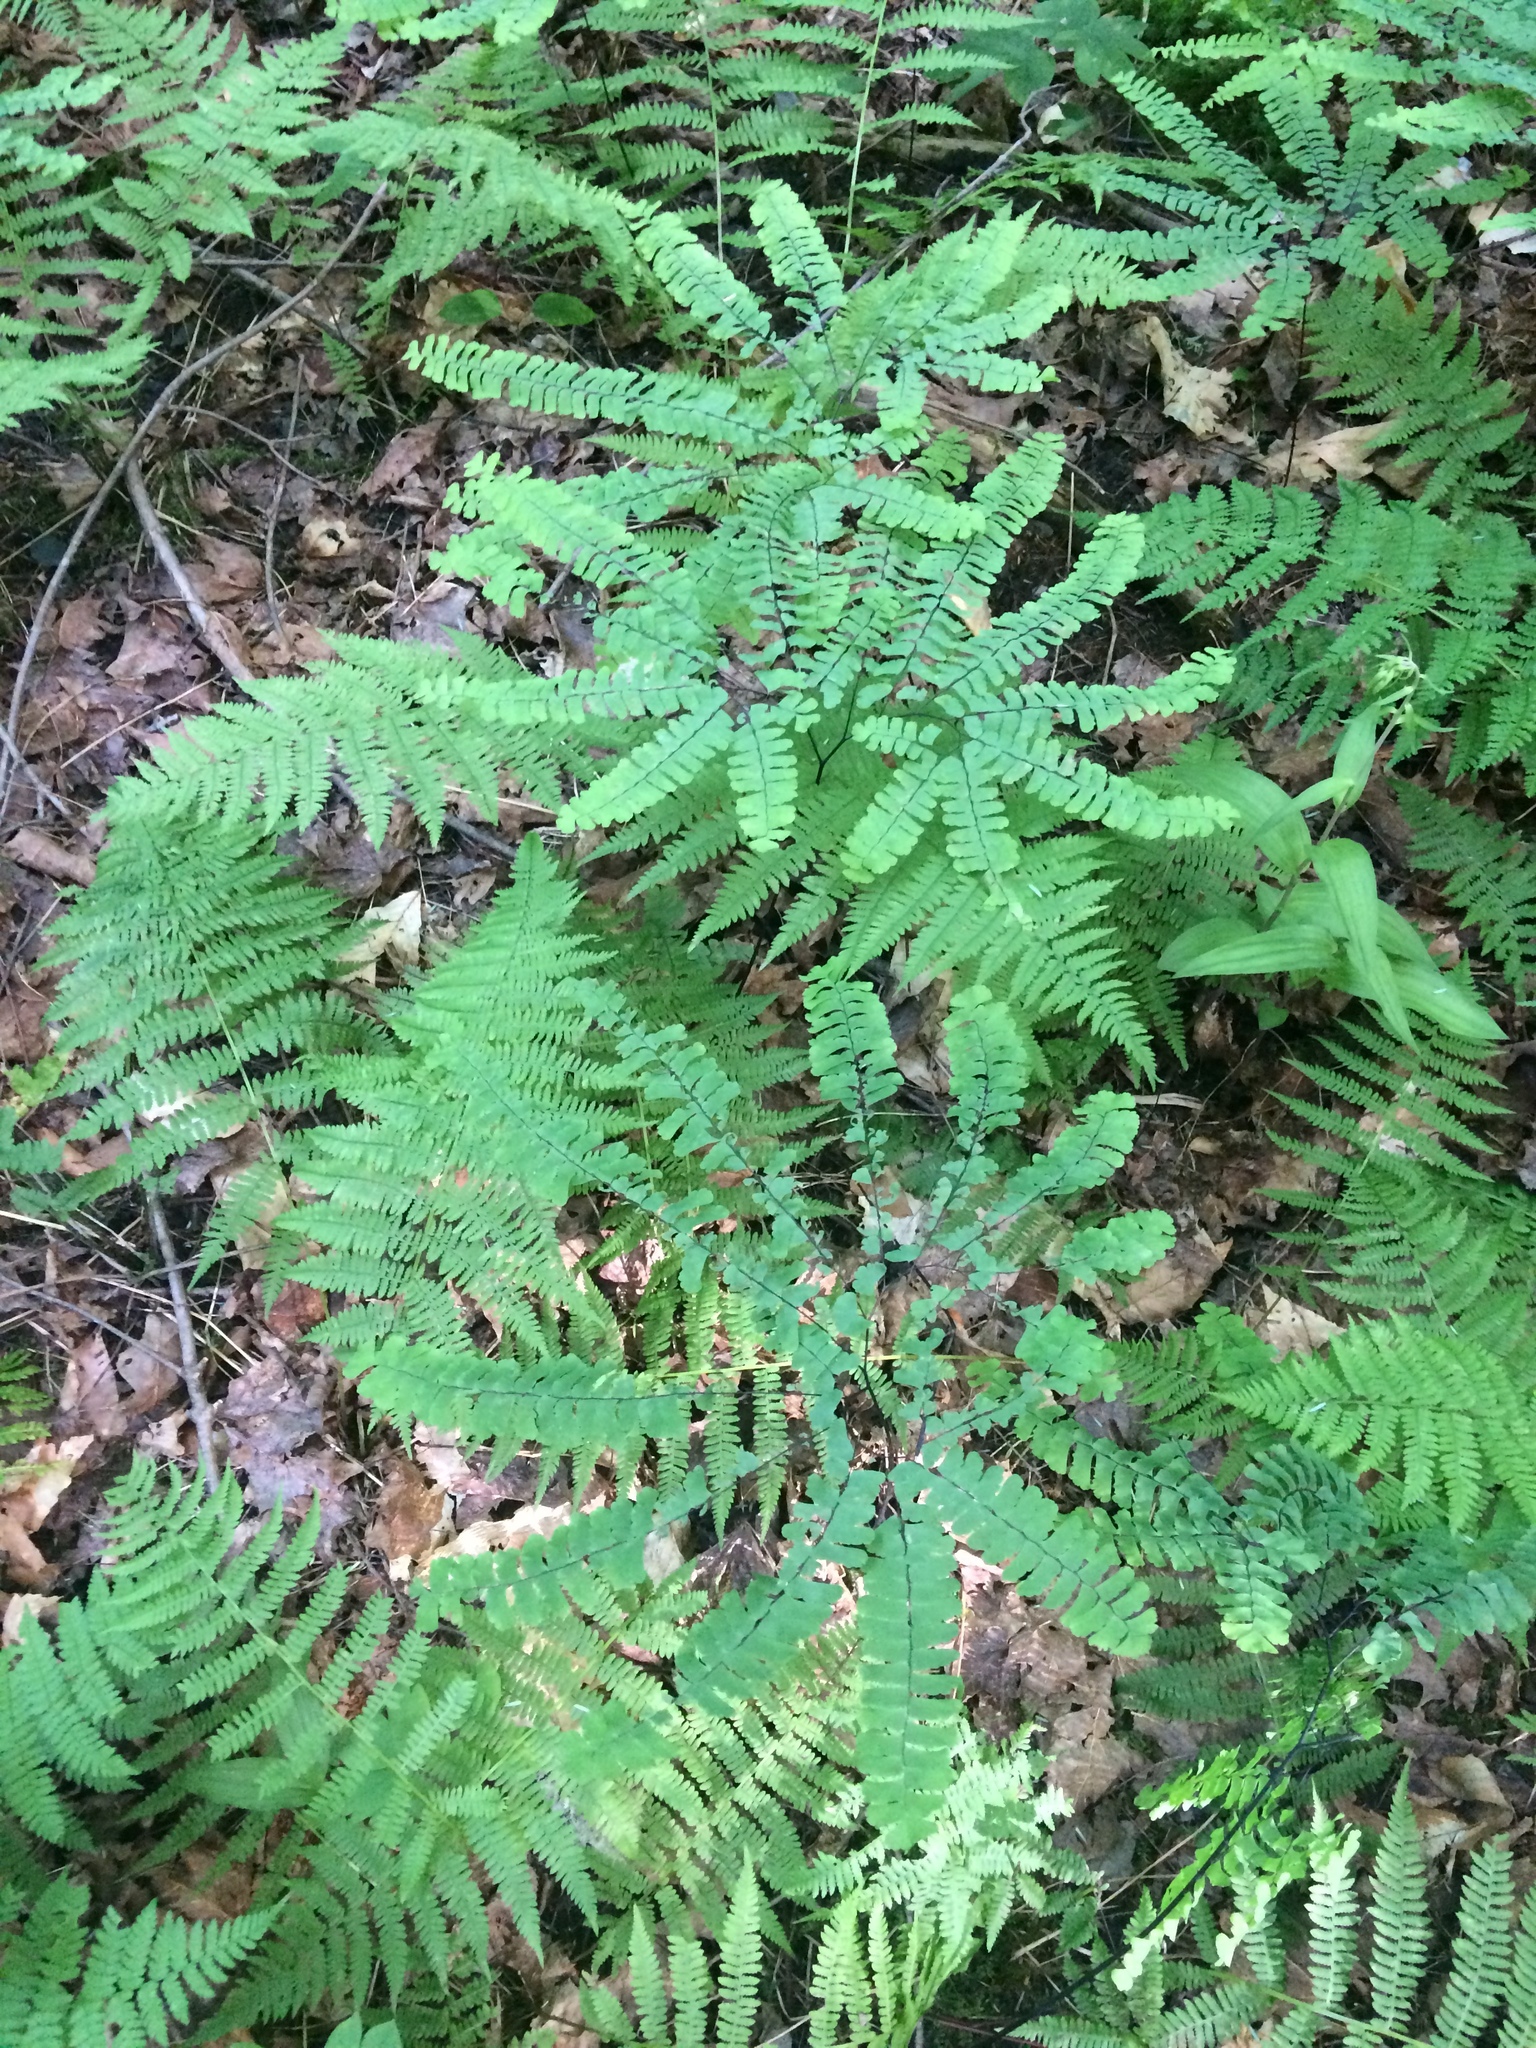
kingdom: Plantae
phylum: Tracheophyta
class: Polypodiopsida
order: Polypodiales
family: Pteridaceae
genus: Adiantum
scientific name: Adiantum pedatum
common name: Five-finger fern
